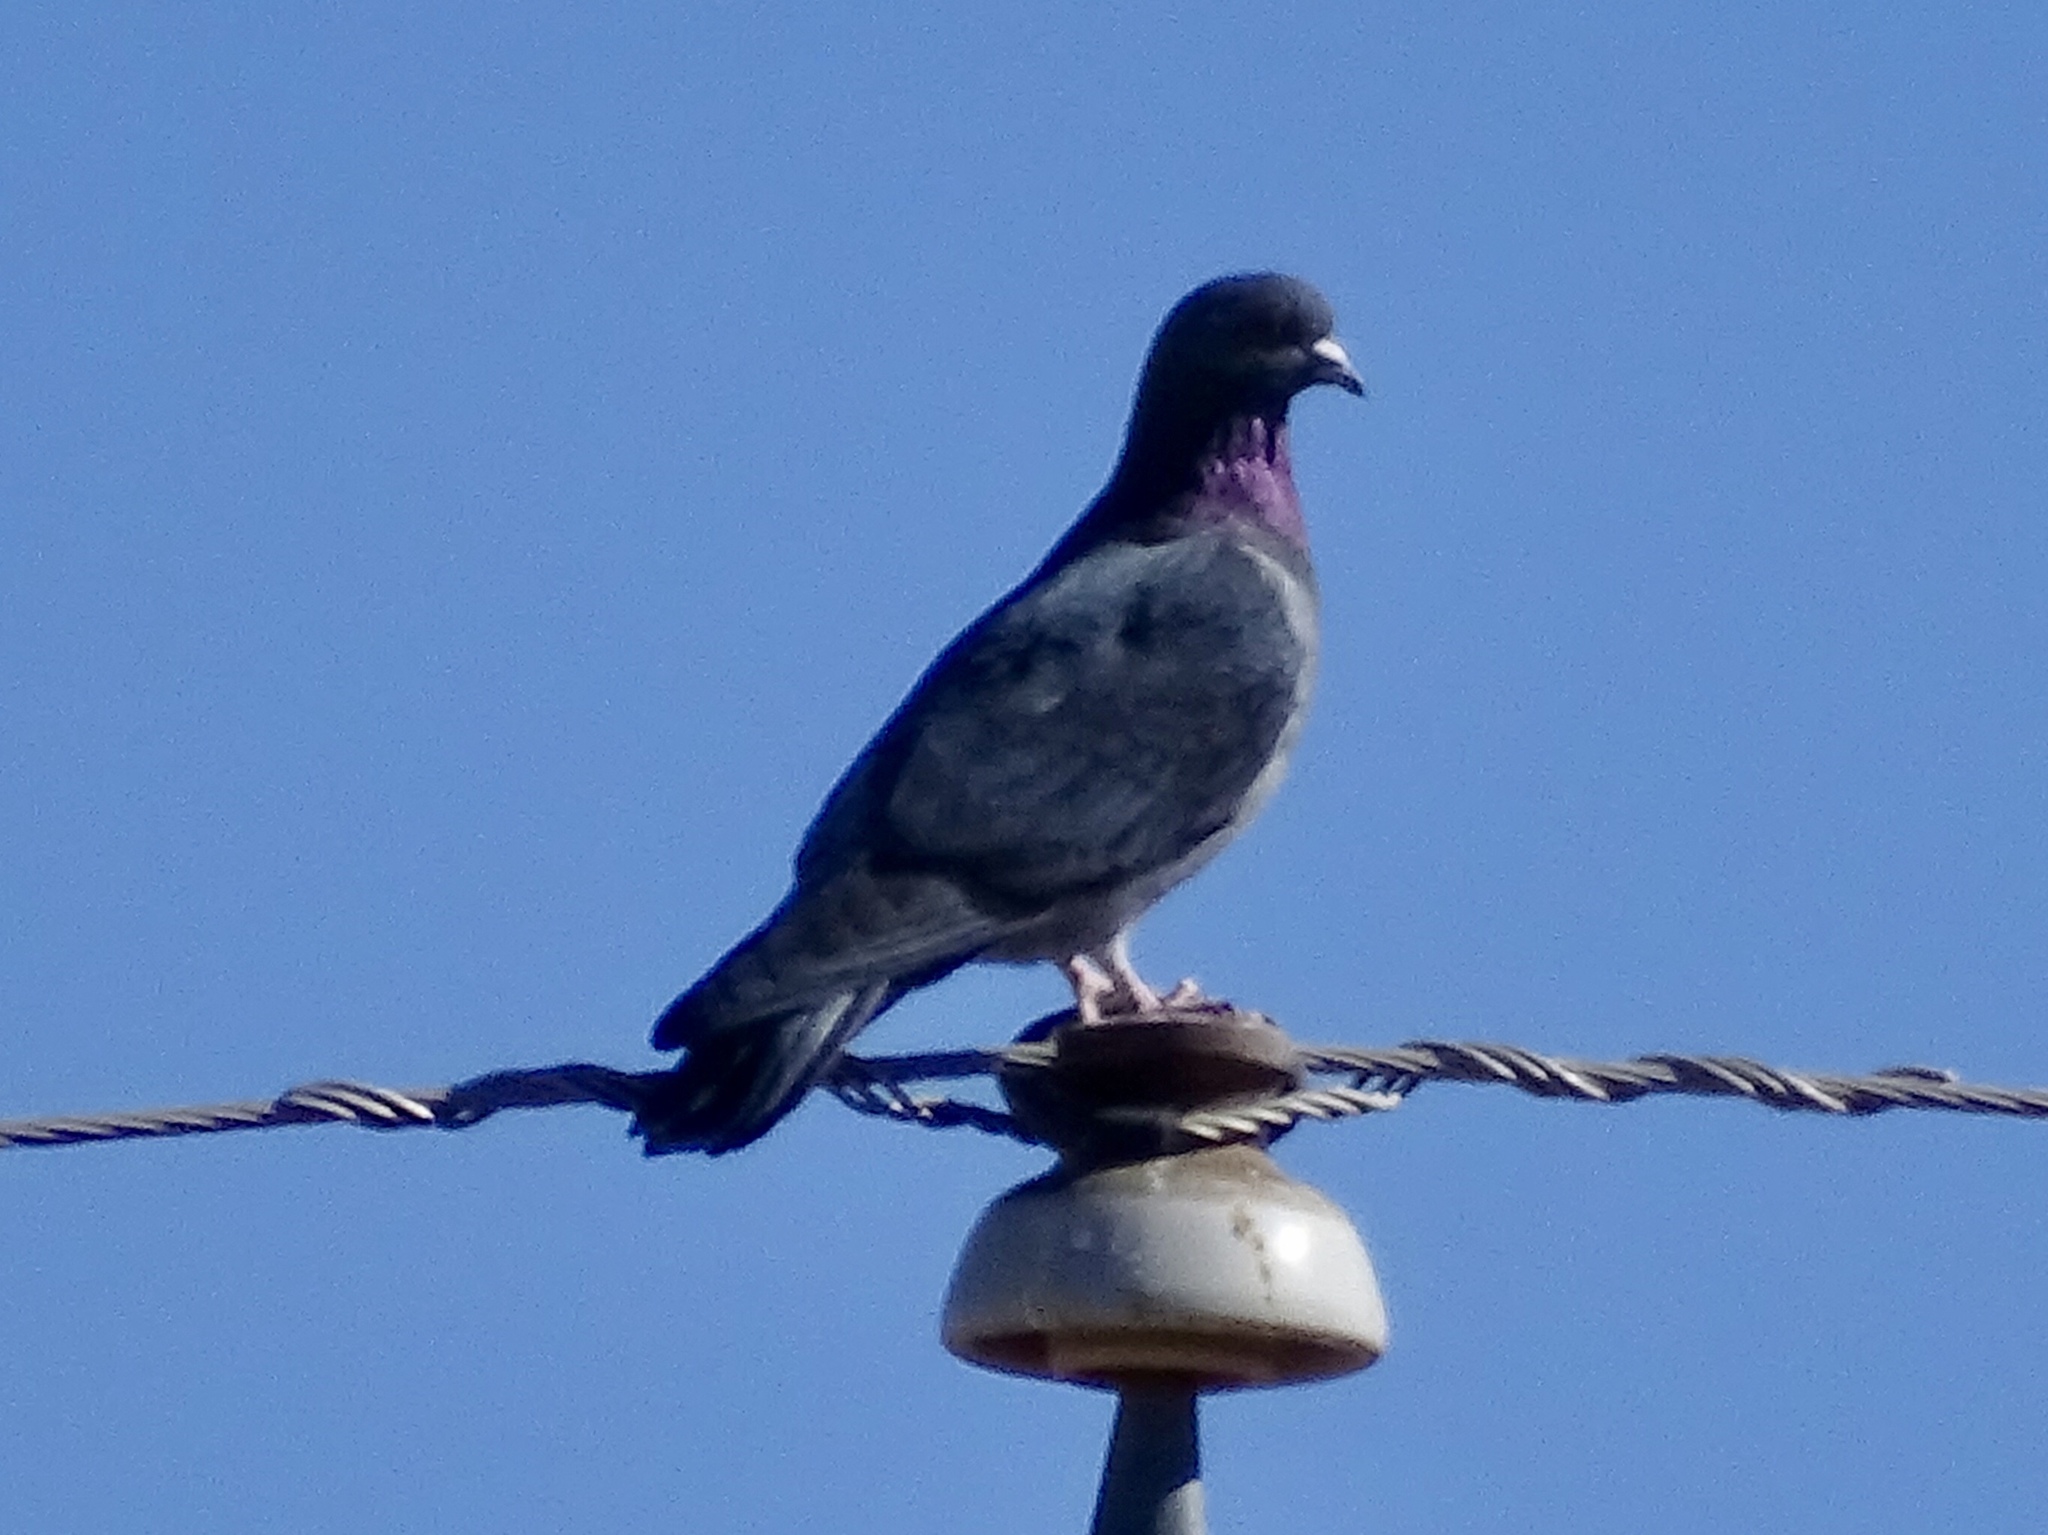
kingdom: Animalia
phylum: Chordata
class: Aves
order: Columbiformes
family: Columbidae
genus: Columba
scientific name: Columba livia
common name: Rock pigeon
